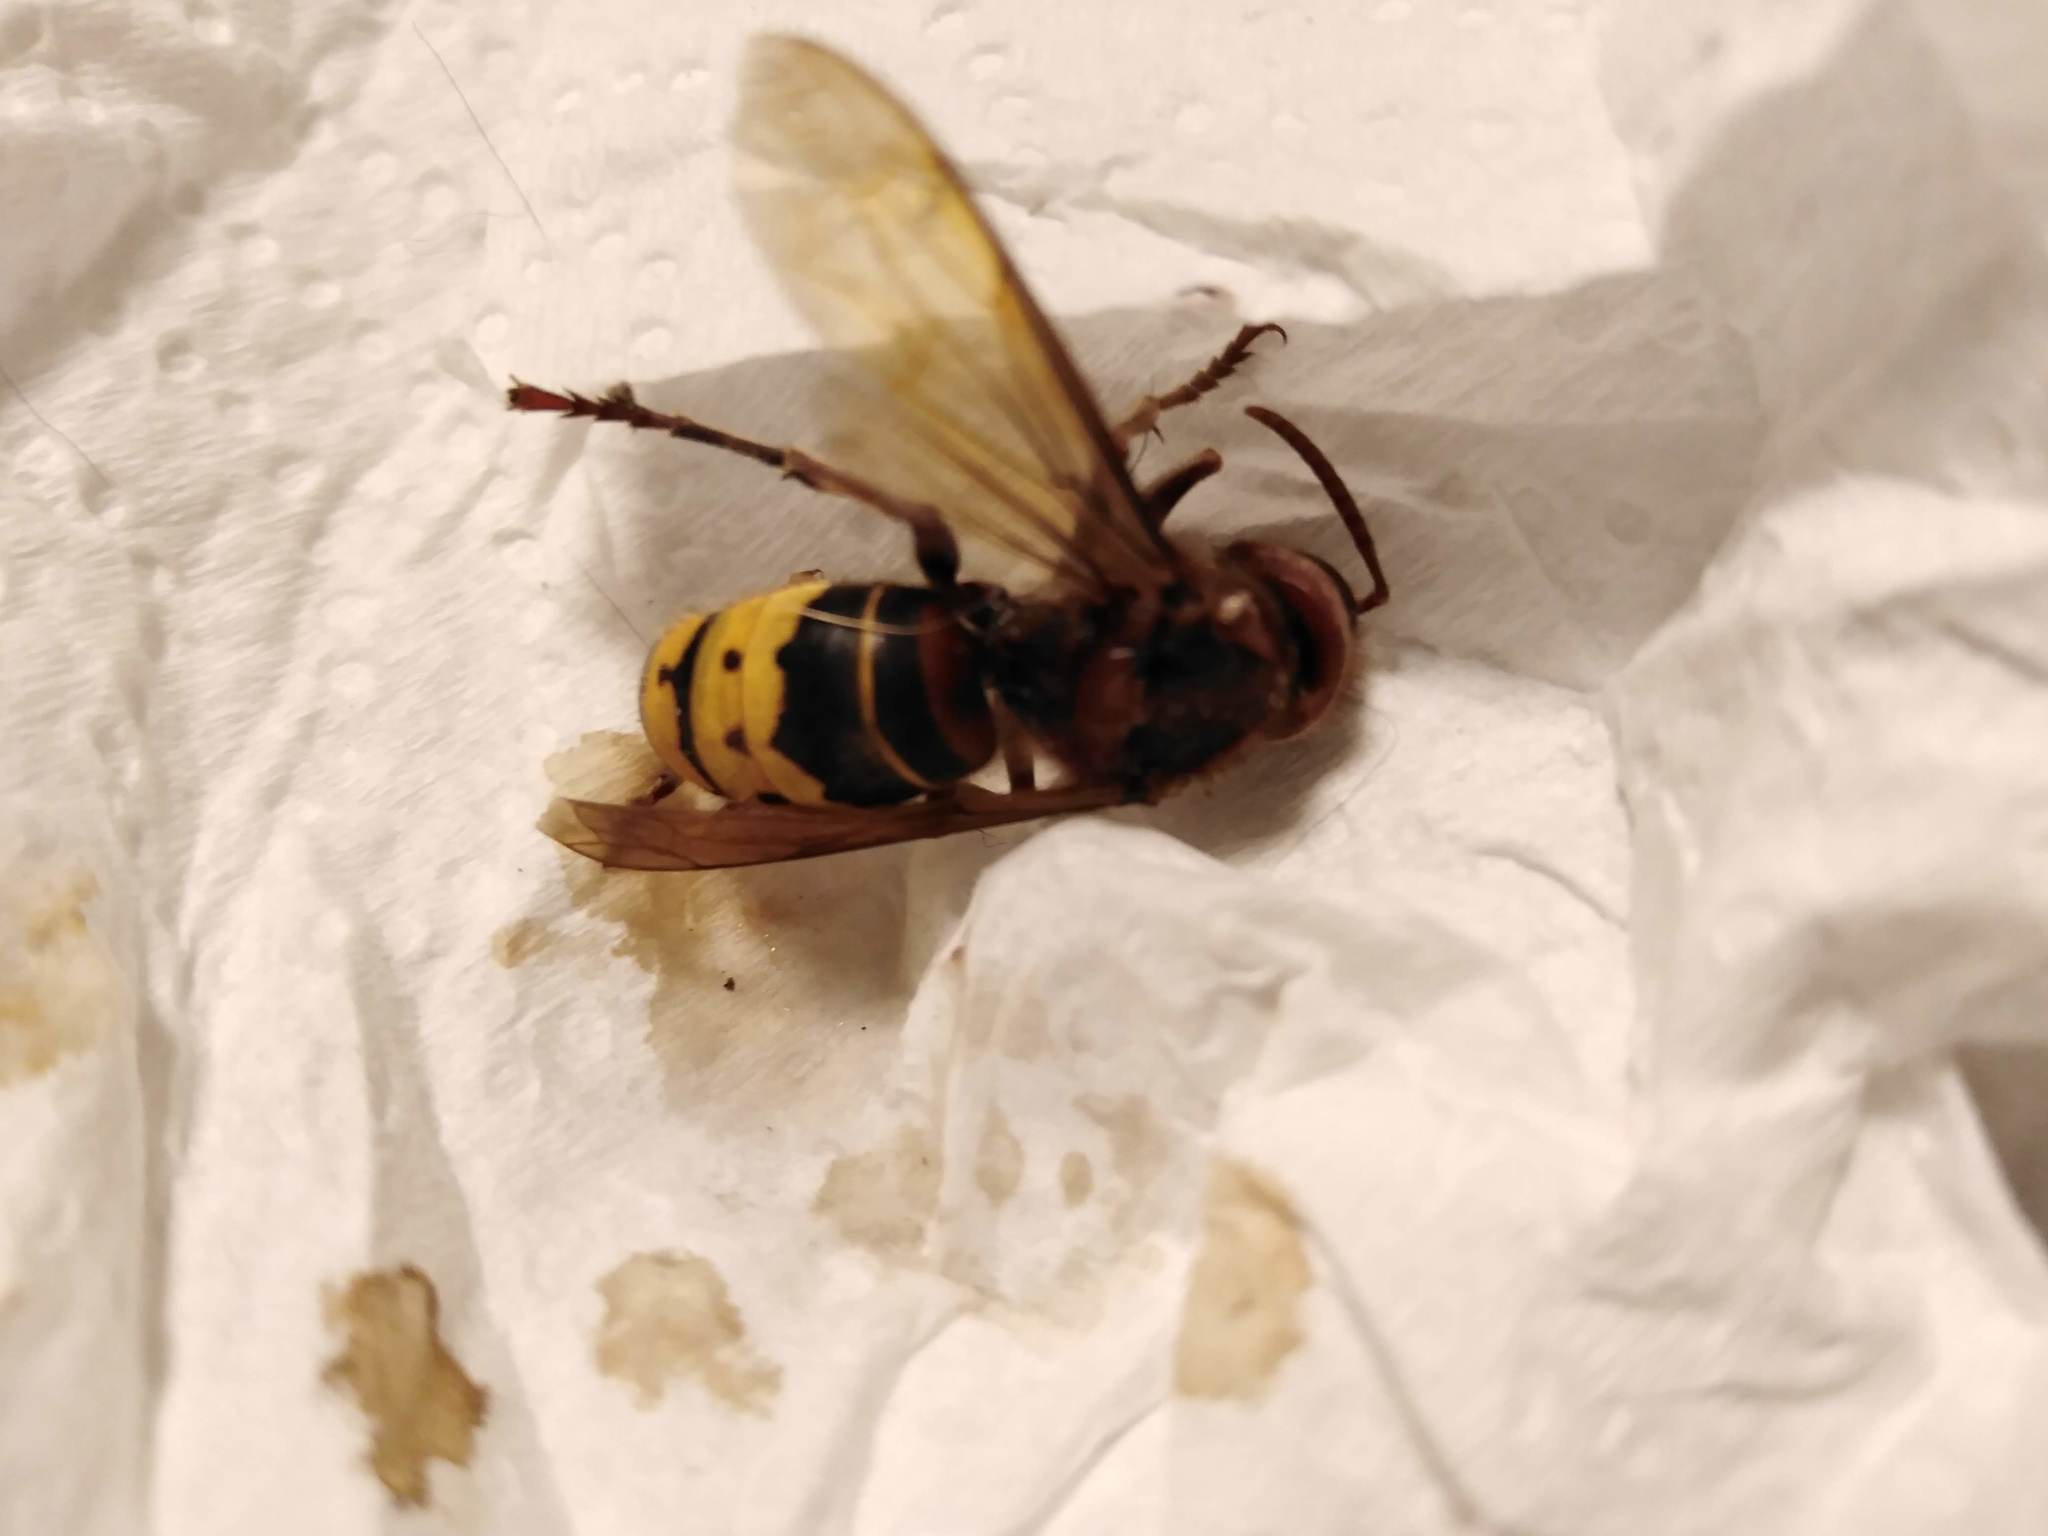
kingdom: Animalia
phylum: Arthropoda
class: Insecta
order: Hymenoptera
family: Vespidae
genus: Vespa
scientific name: Vespa crabro
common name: Hornet
